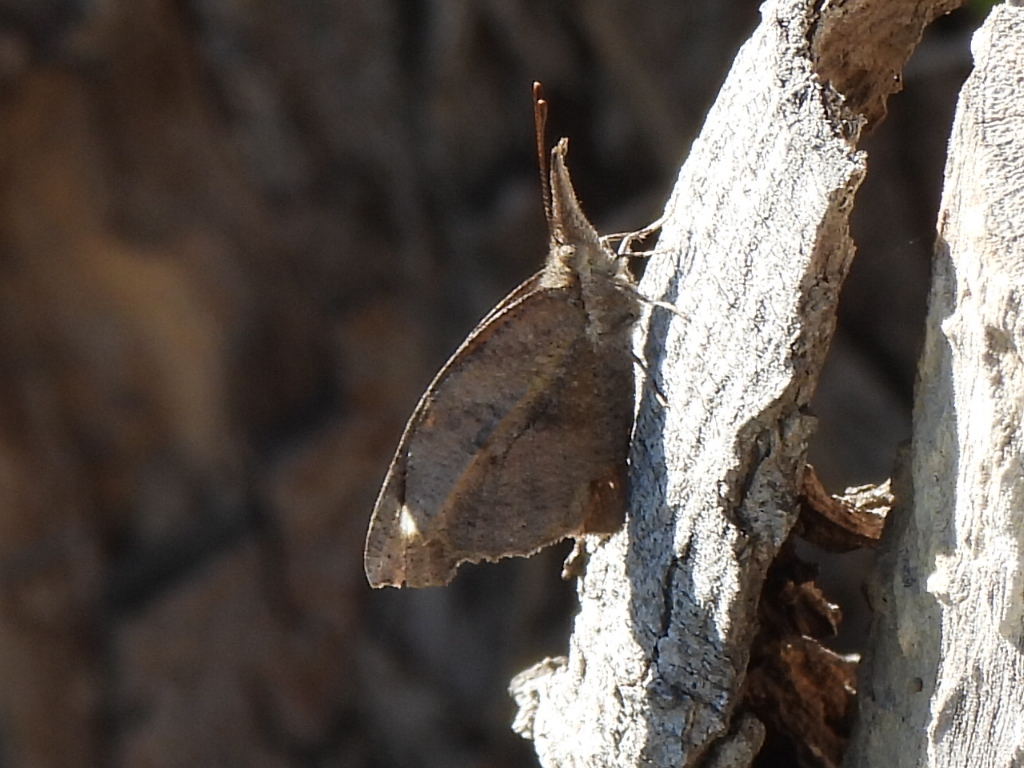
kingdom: Animalia
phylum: Arthropoda
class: Insecta
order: Lepidoptera
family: Nymphalidae
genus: Libytheana
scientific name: Libytheana carinenta
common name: American snout
